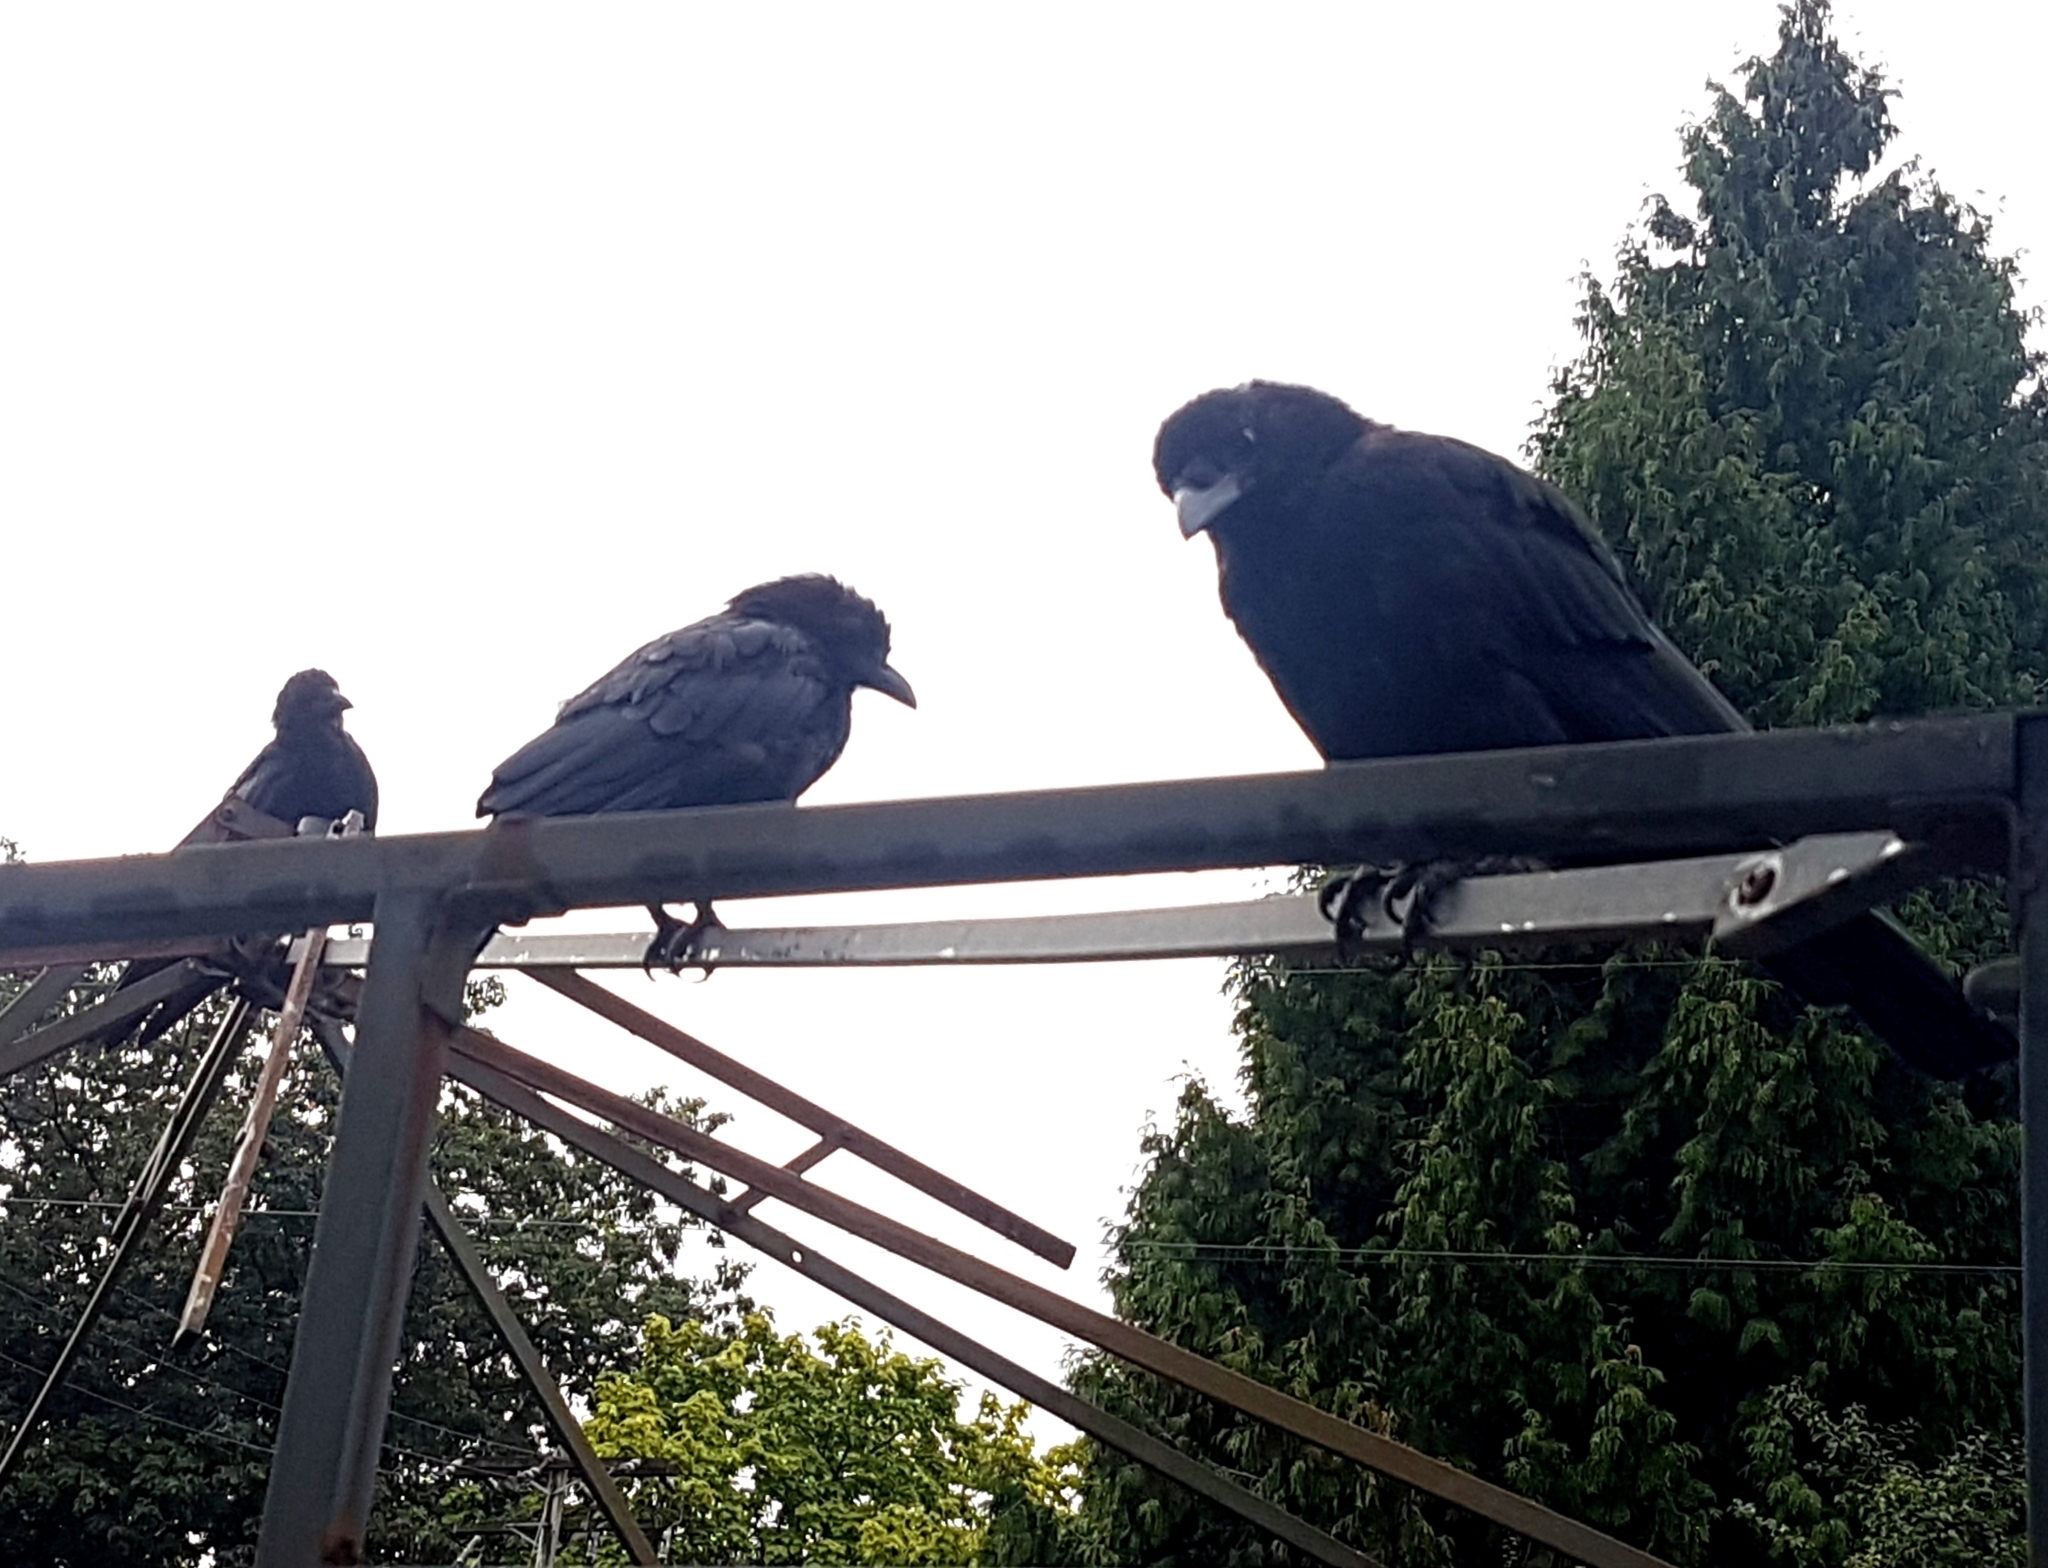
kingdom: Animalia
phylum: Chordata
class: Aves
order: Passeriformes
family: Corvidae
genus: Corvus
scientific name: Corvus brachyrhynchos
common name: American crow
